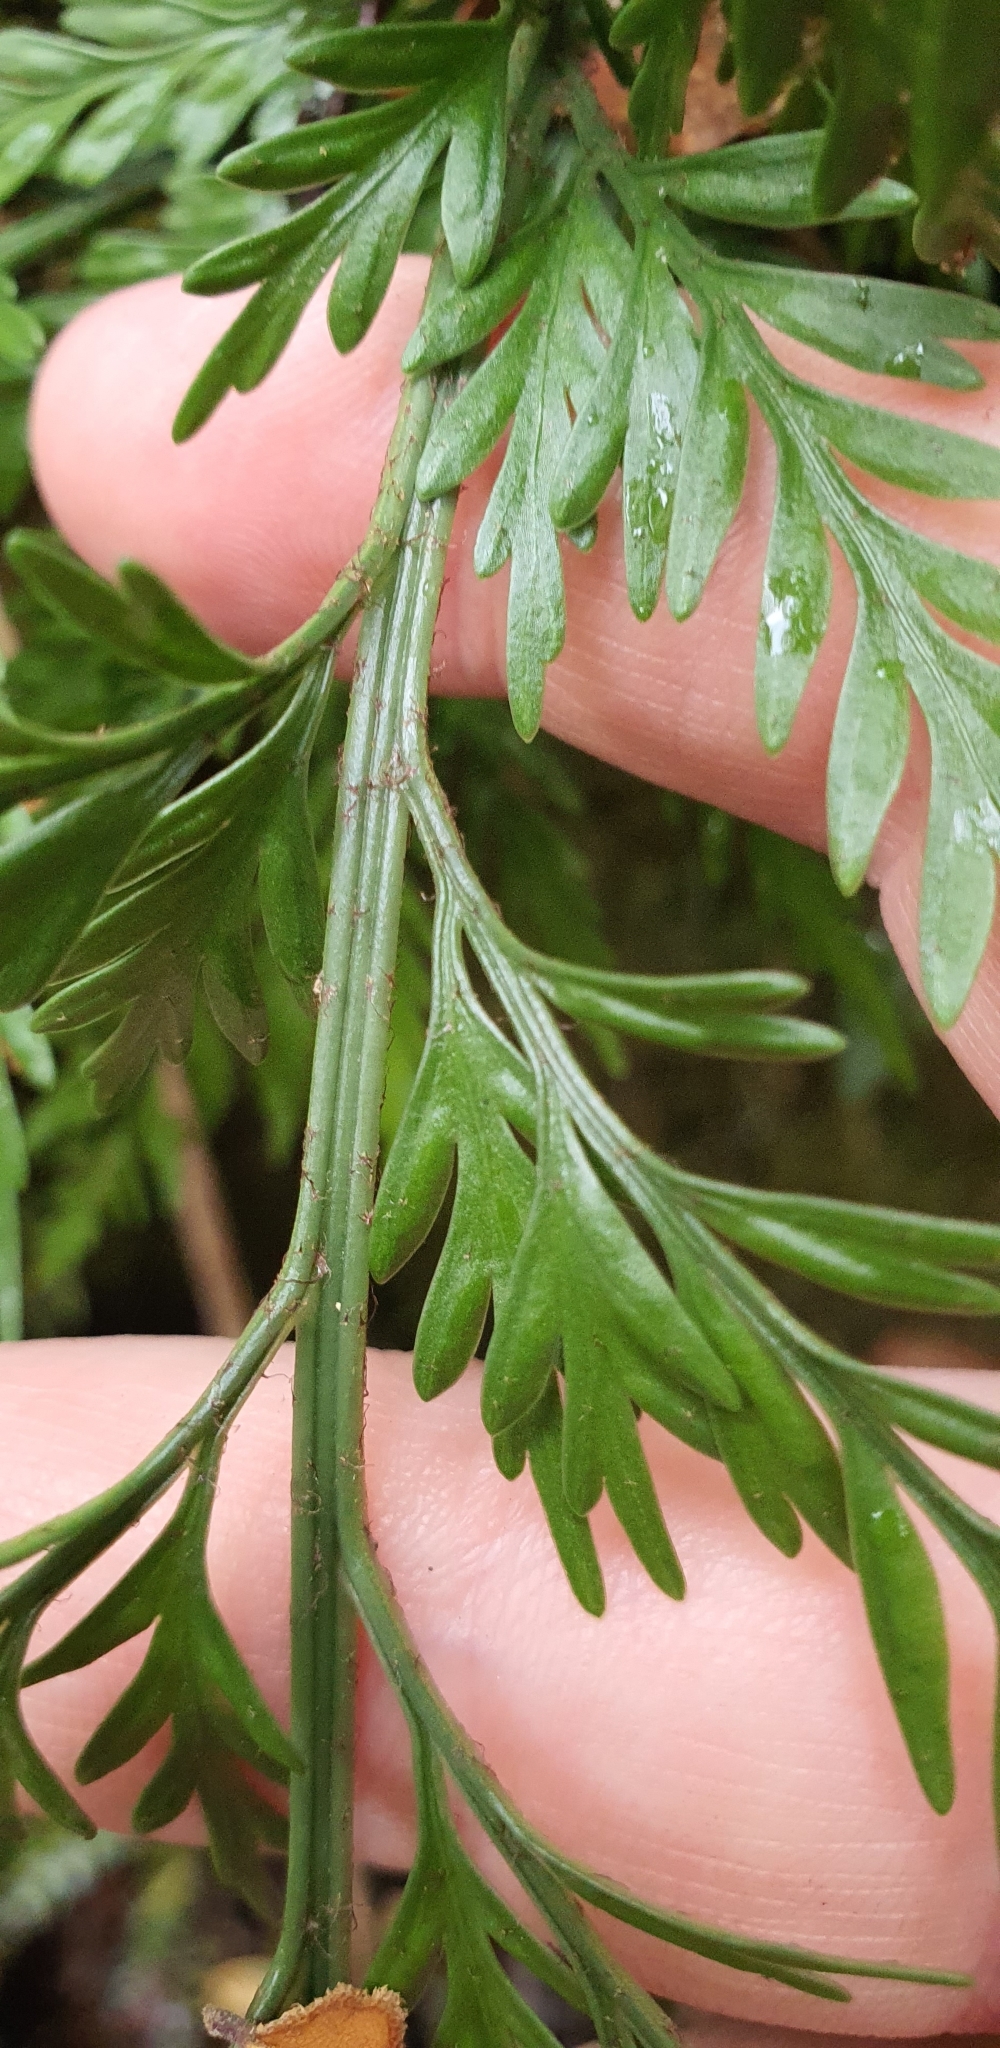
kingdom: Plantae
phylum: Tracheophyta
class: Polypodiopsida
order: Polypodiales
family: Aspleniaceae
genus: Asplenium
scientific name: Asplenium appendiculatum
